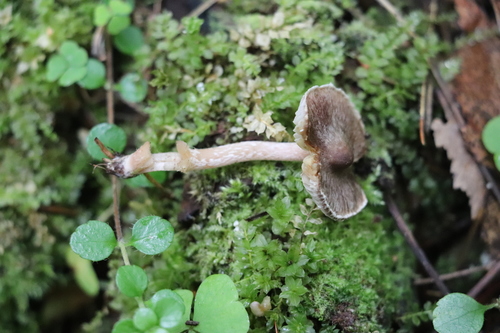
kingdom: Fungi
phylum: Basidiomycota
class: Agaricomycetes
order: Agaricales
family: Inocybaceae
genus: Inocybe
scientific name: Inocybe
